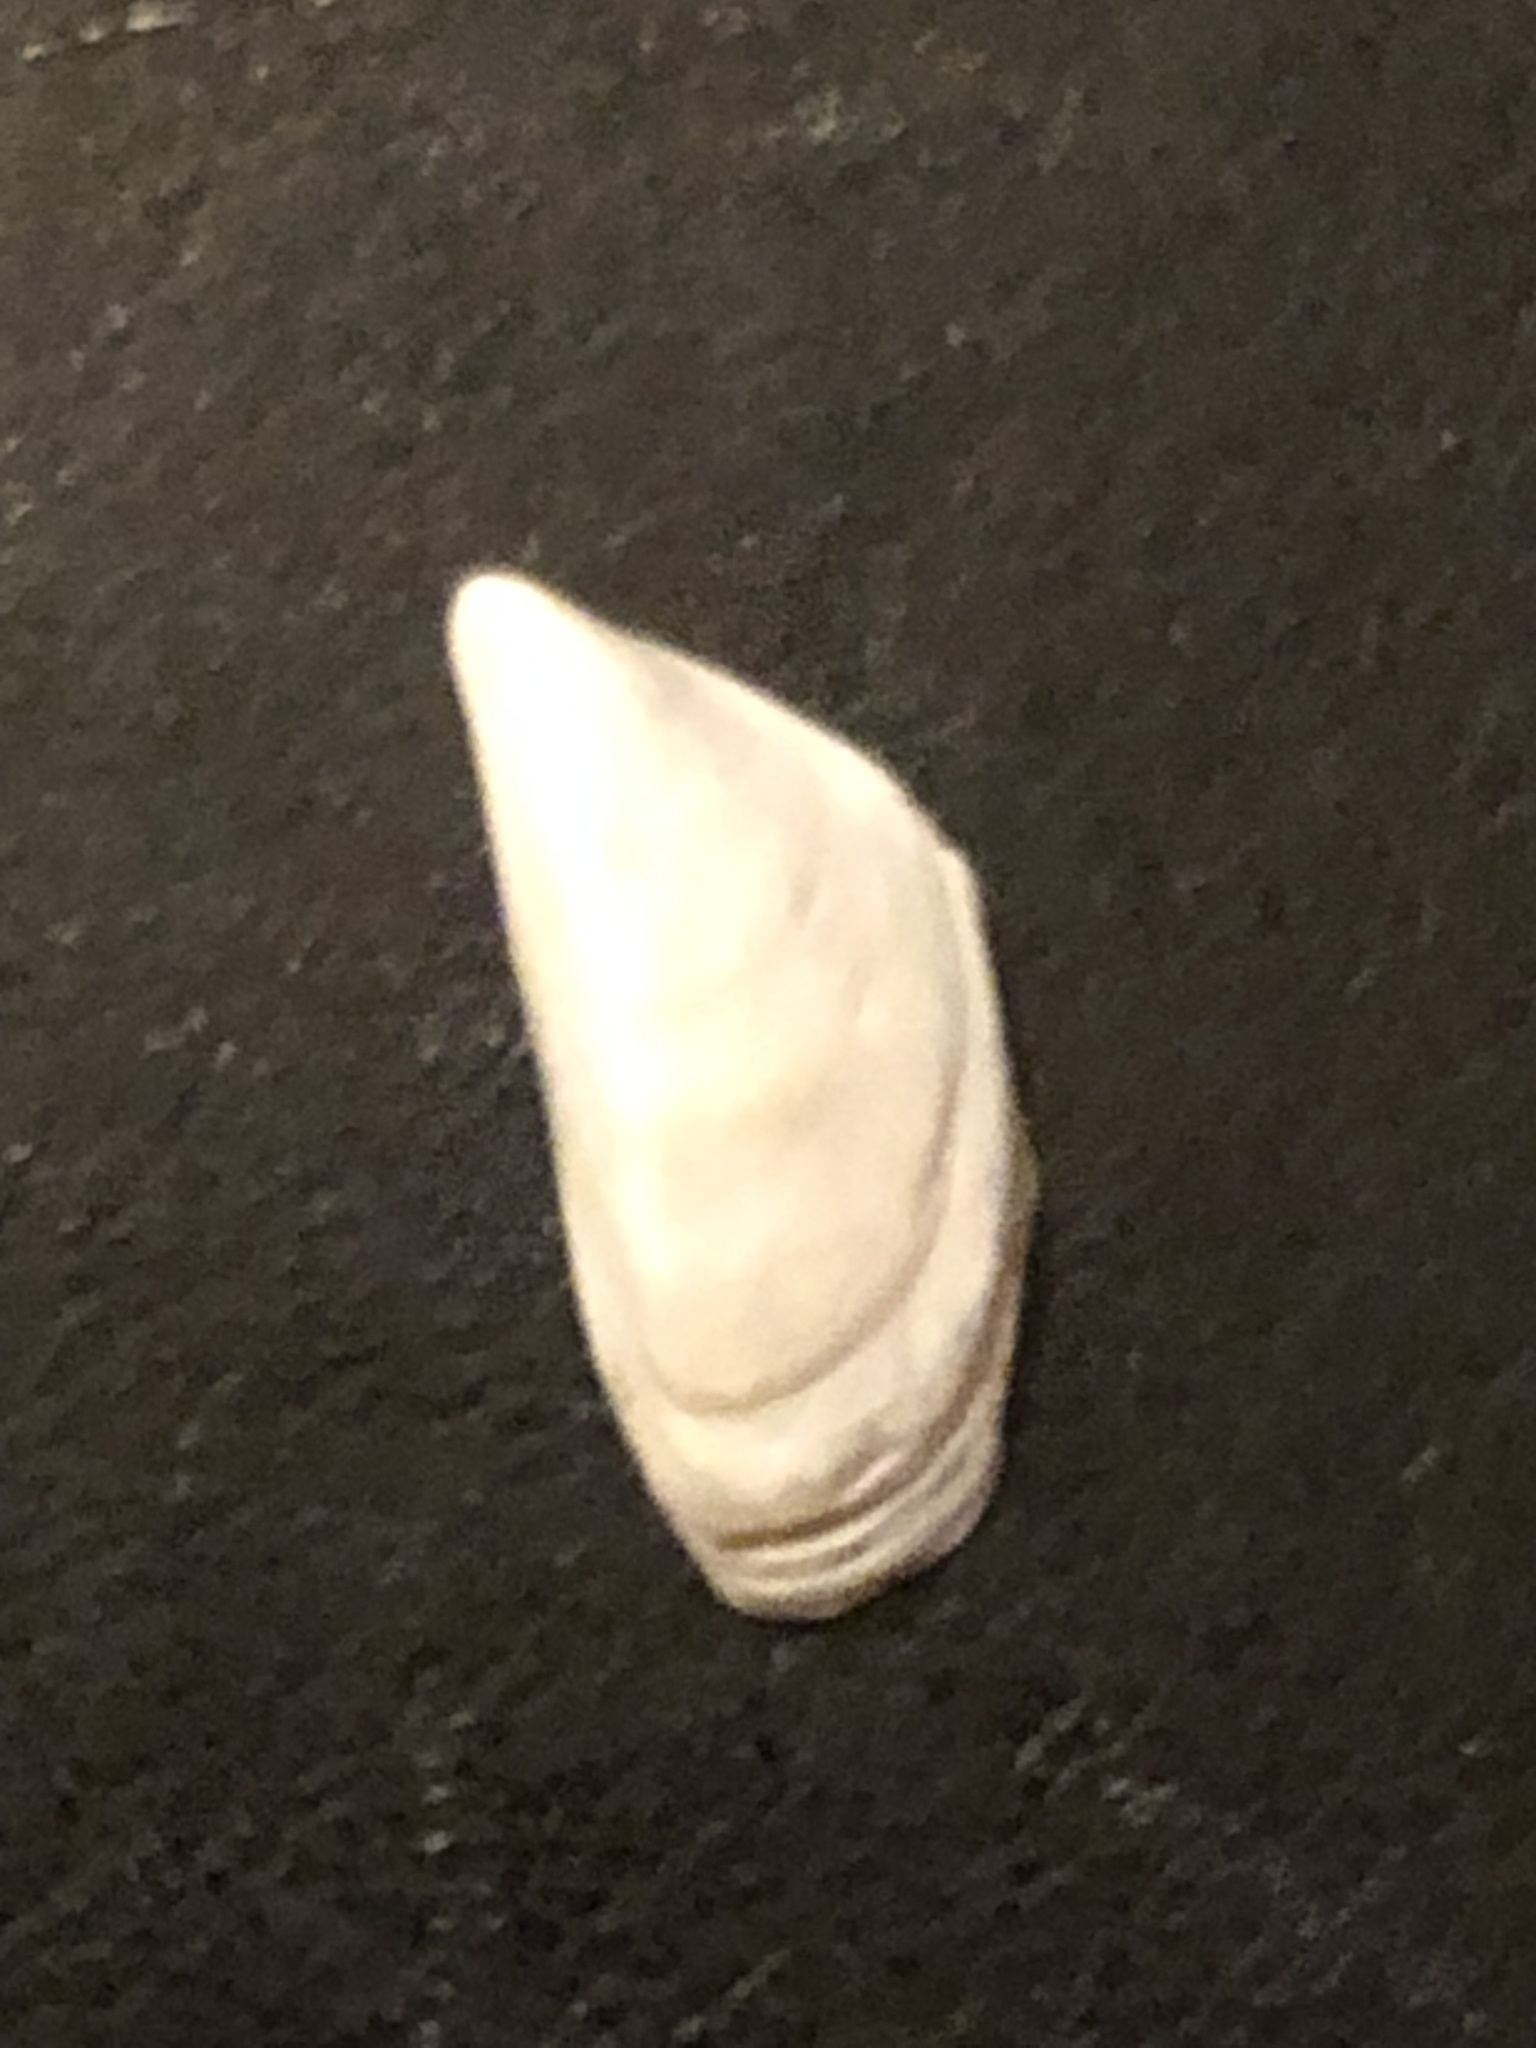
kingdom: Animalia
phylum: Mollusca
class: Bivalvia
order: Myida
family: Dreissenidae
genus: Dreissena
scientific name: Dreissena polymorpha
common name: Zebra mussel
